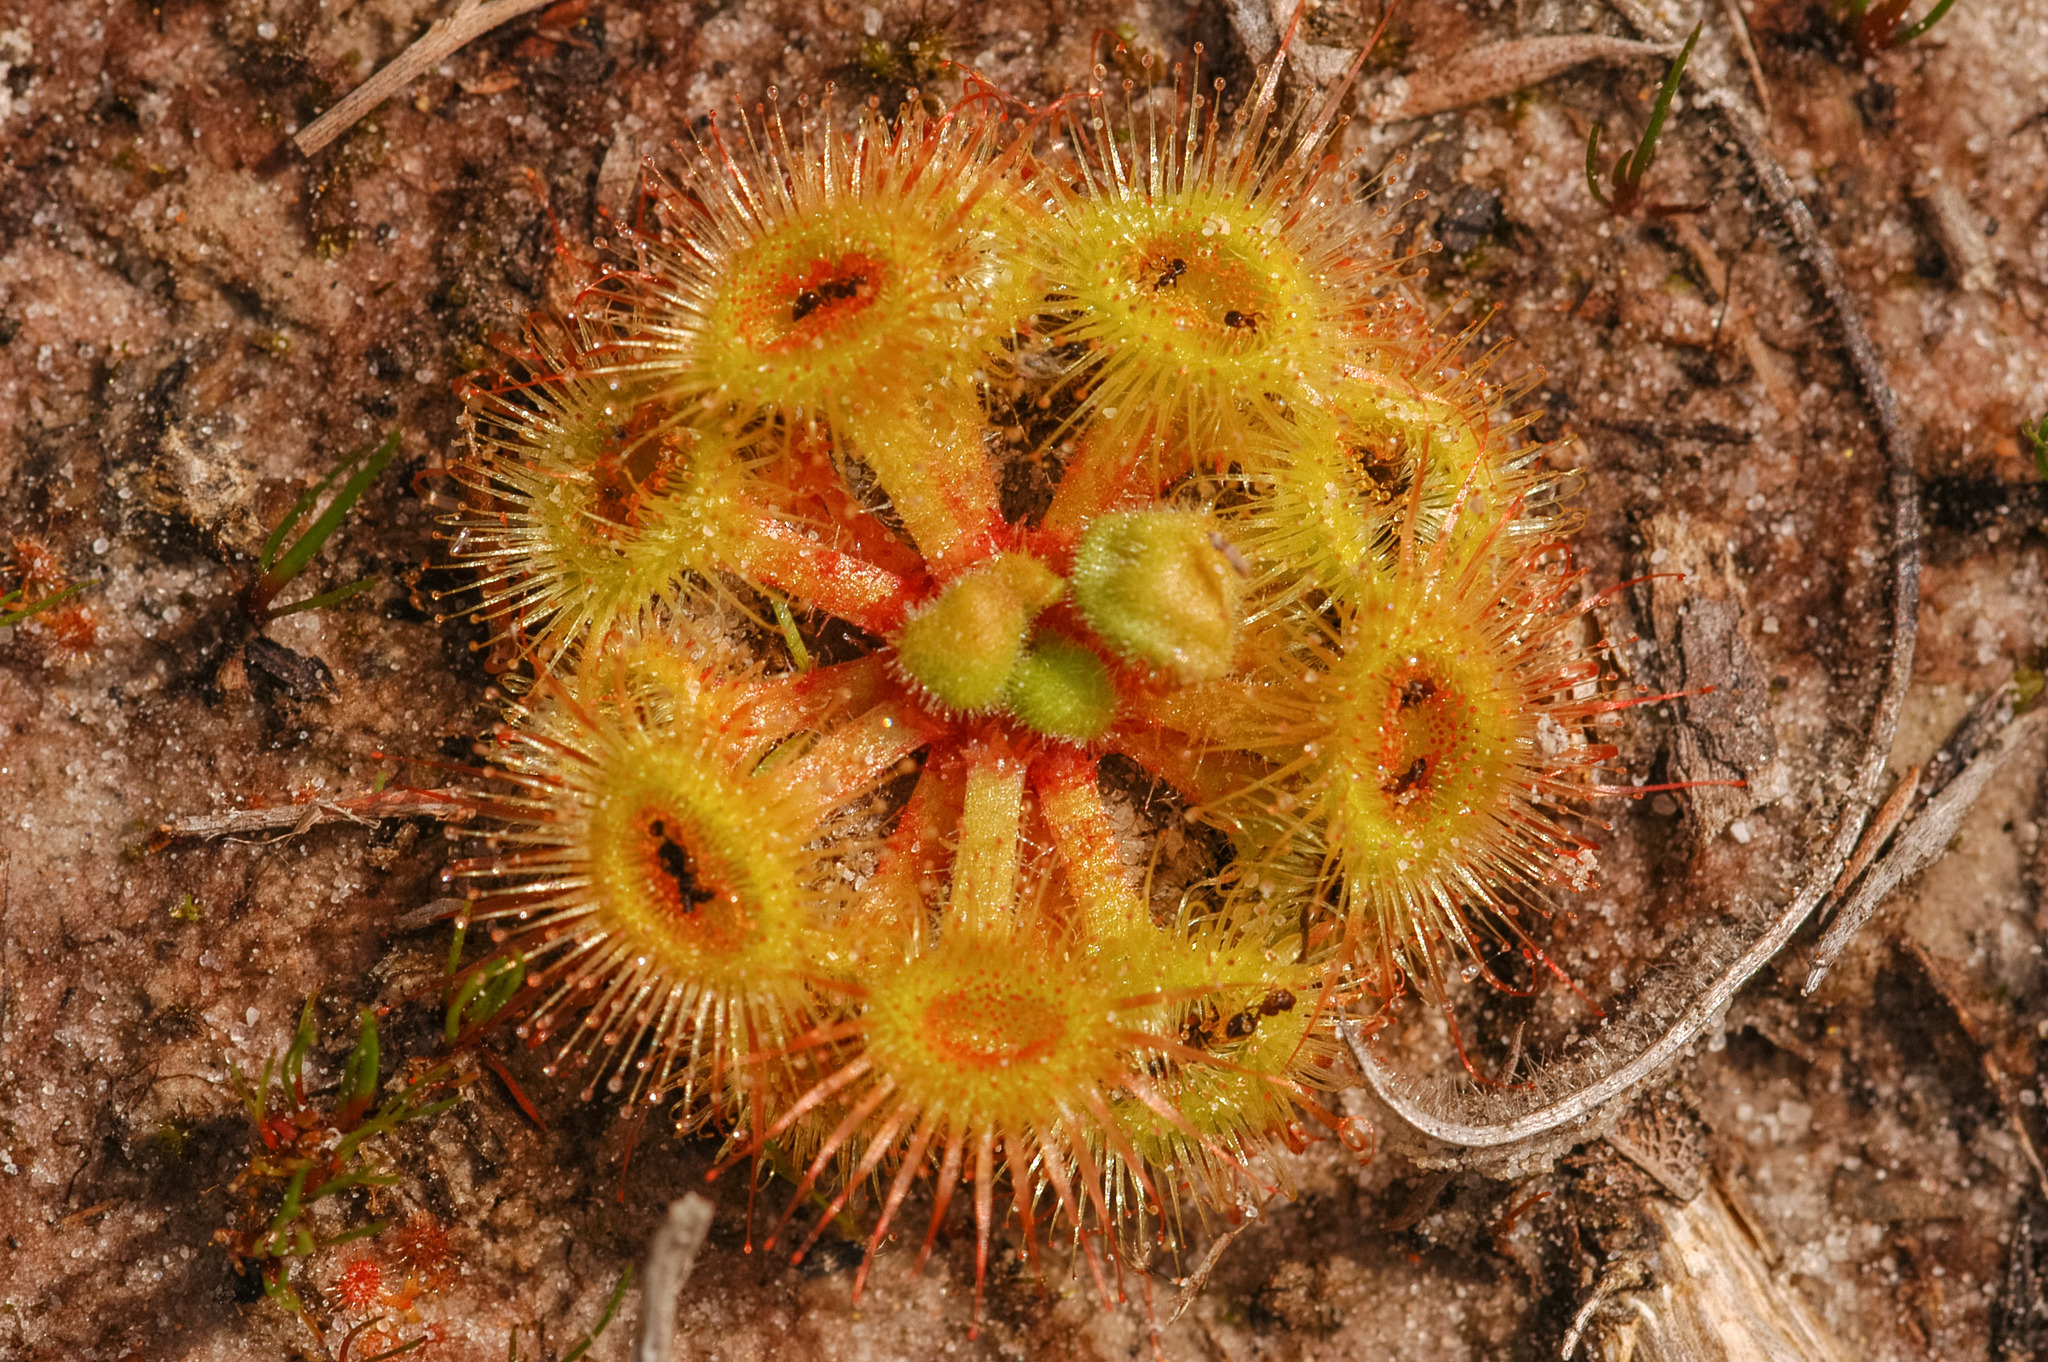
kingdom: Plantae
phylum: Tracheophyta
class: Magnoliopsida
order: Caryophyllales
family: Droseraceae
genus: Drosera
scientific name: Drosera glanduligera
